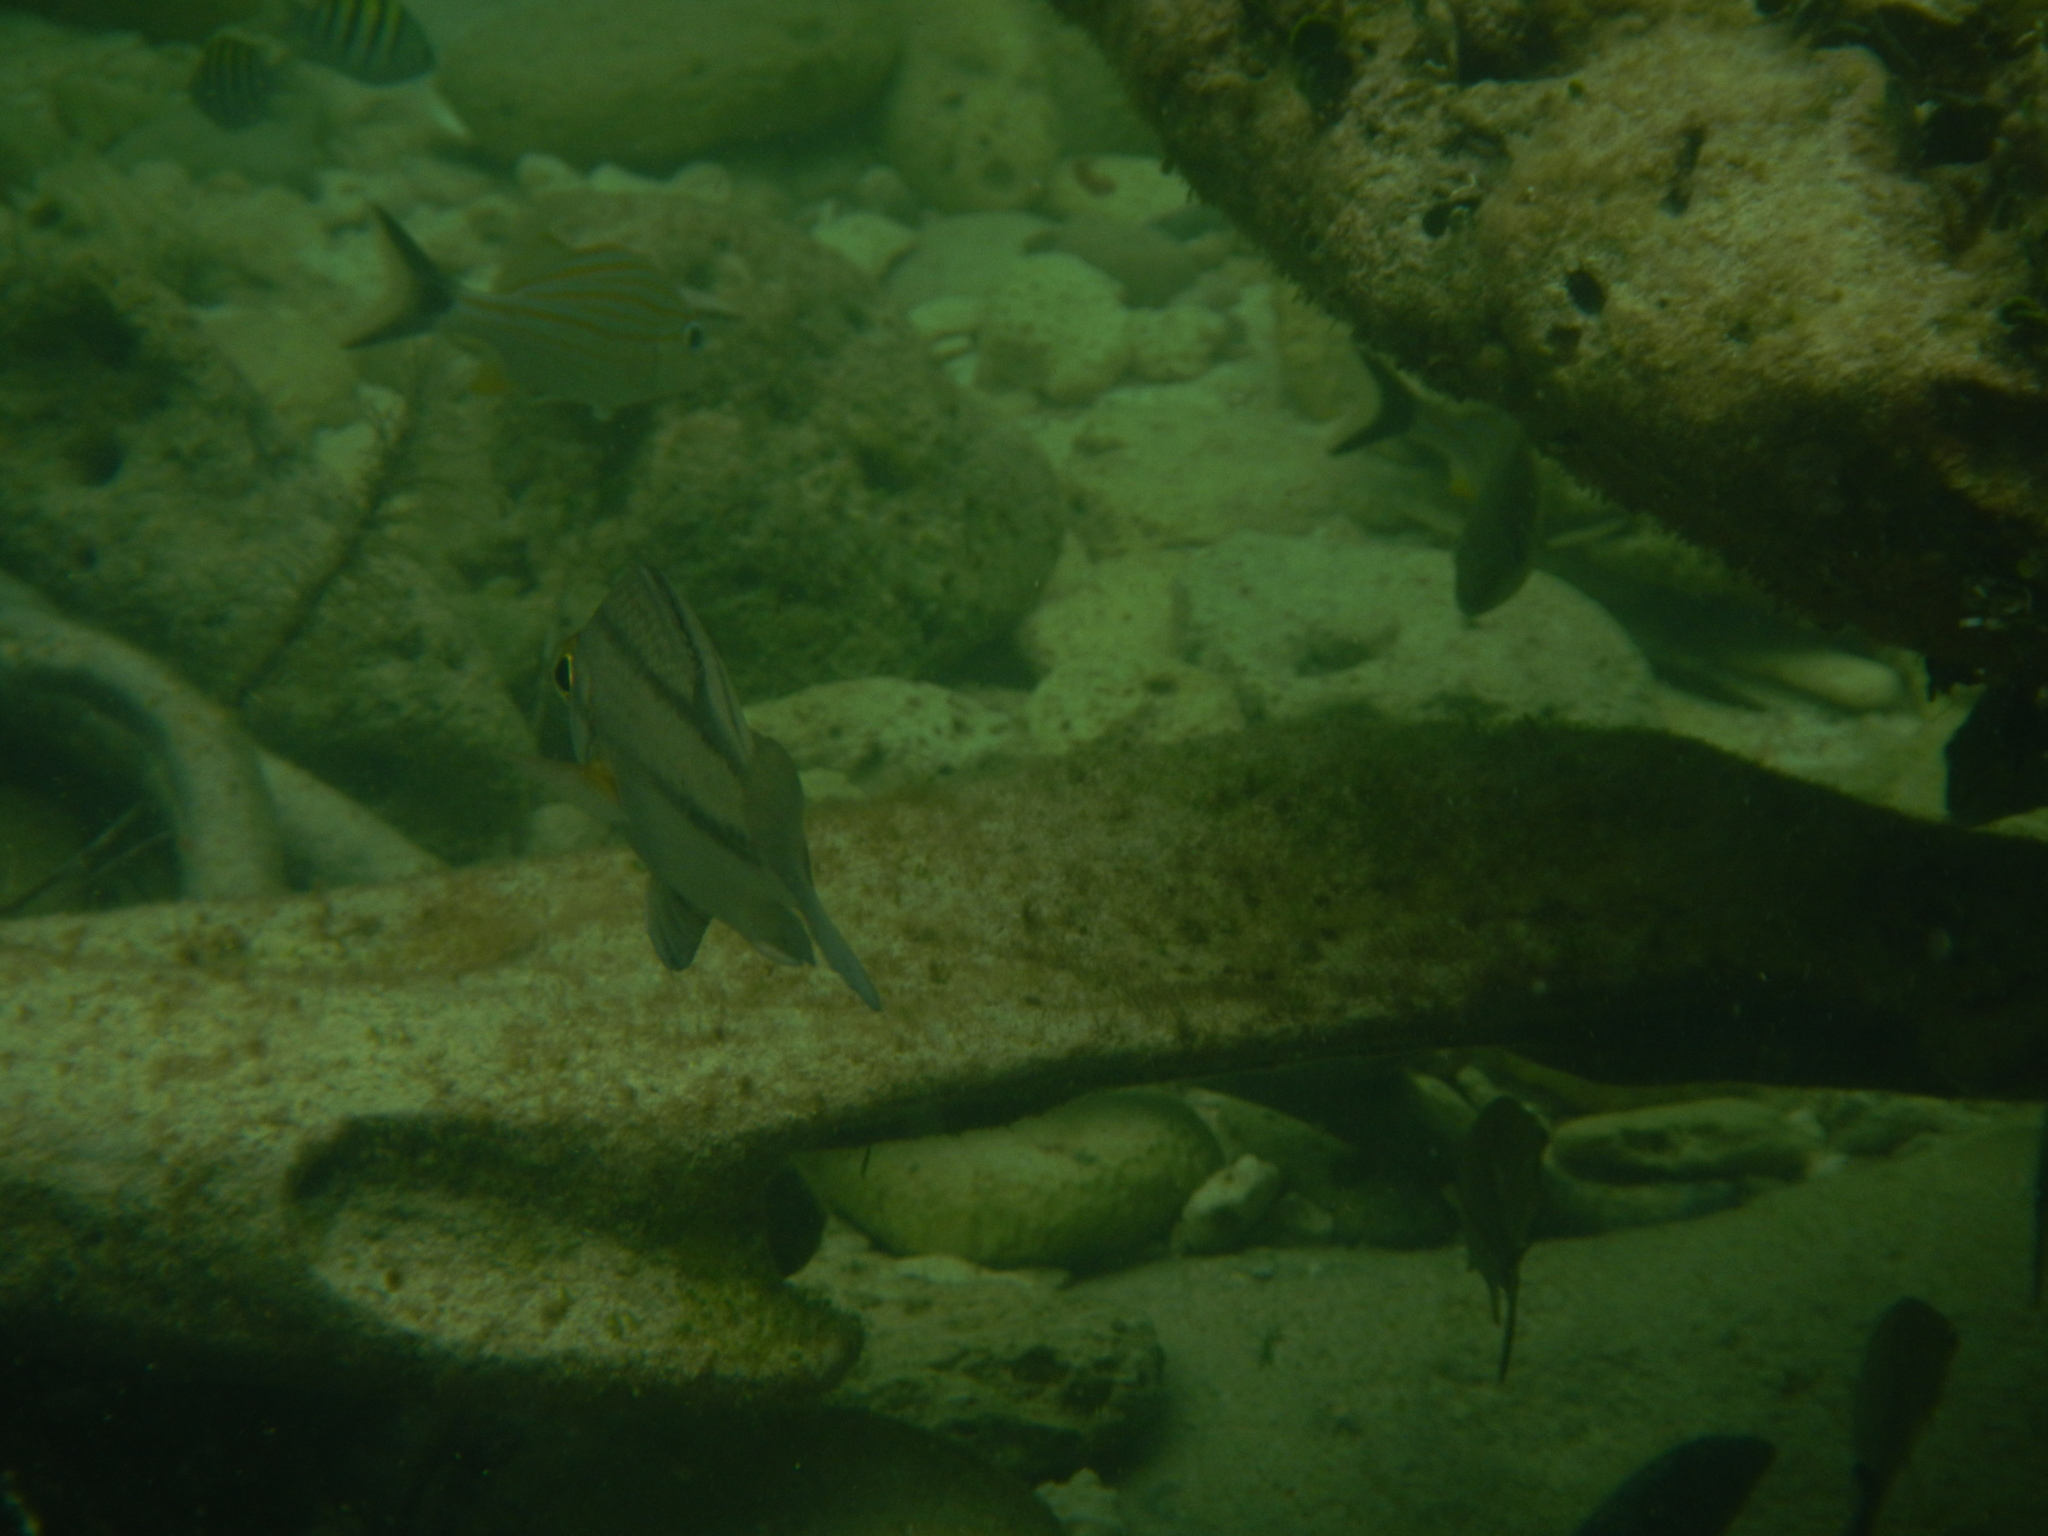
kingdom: Animalia
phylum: Chordata
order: Perciformes
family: Haemulidae
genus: Anisotremus
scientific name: Anisotremus surinamensis
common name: Black margate
